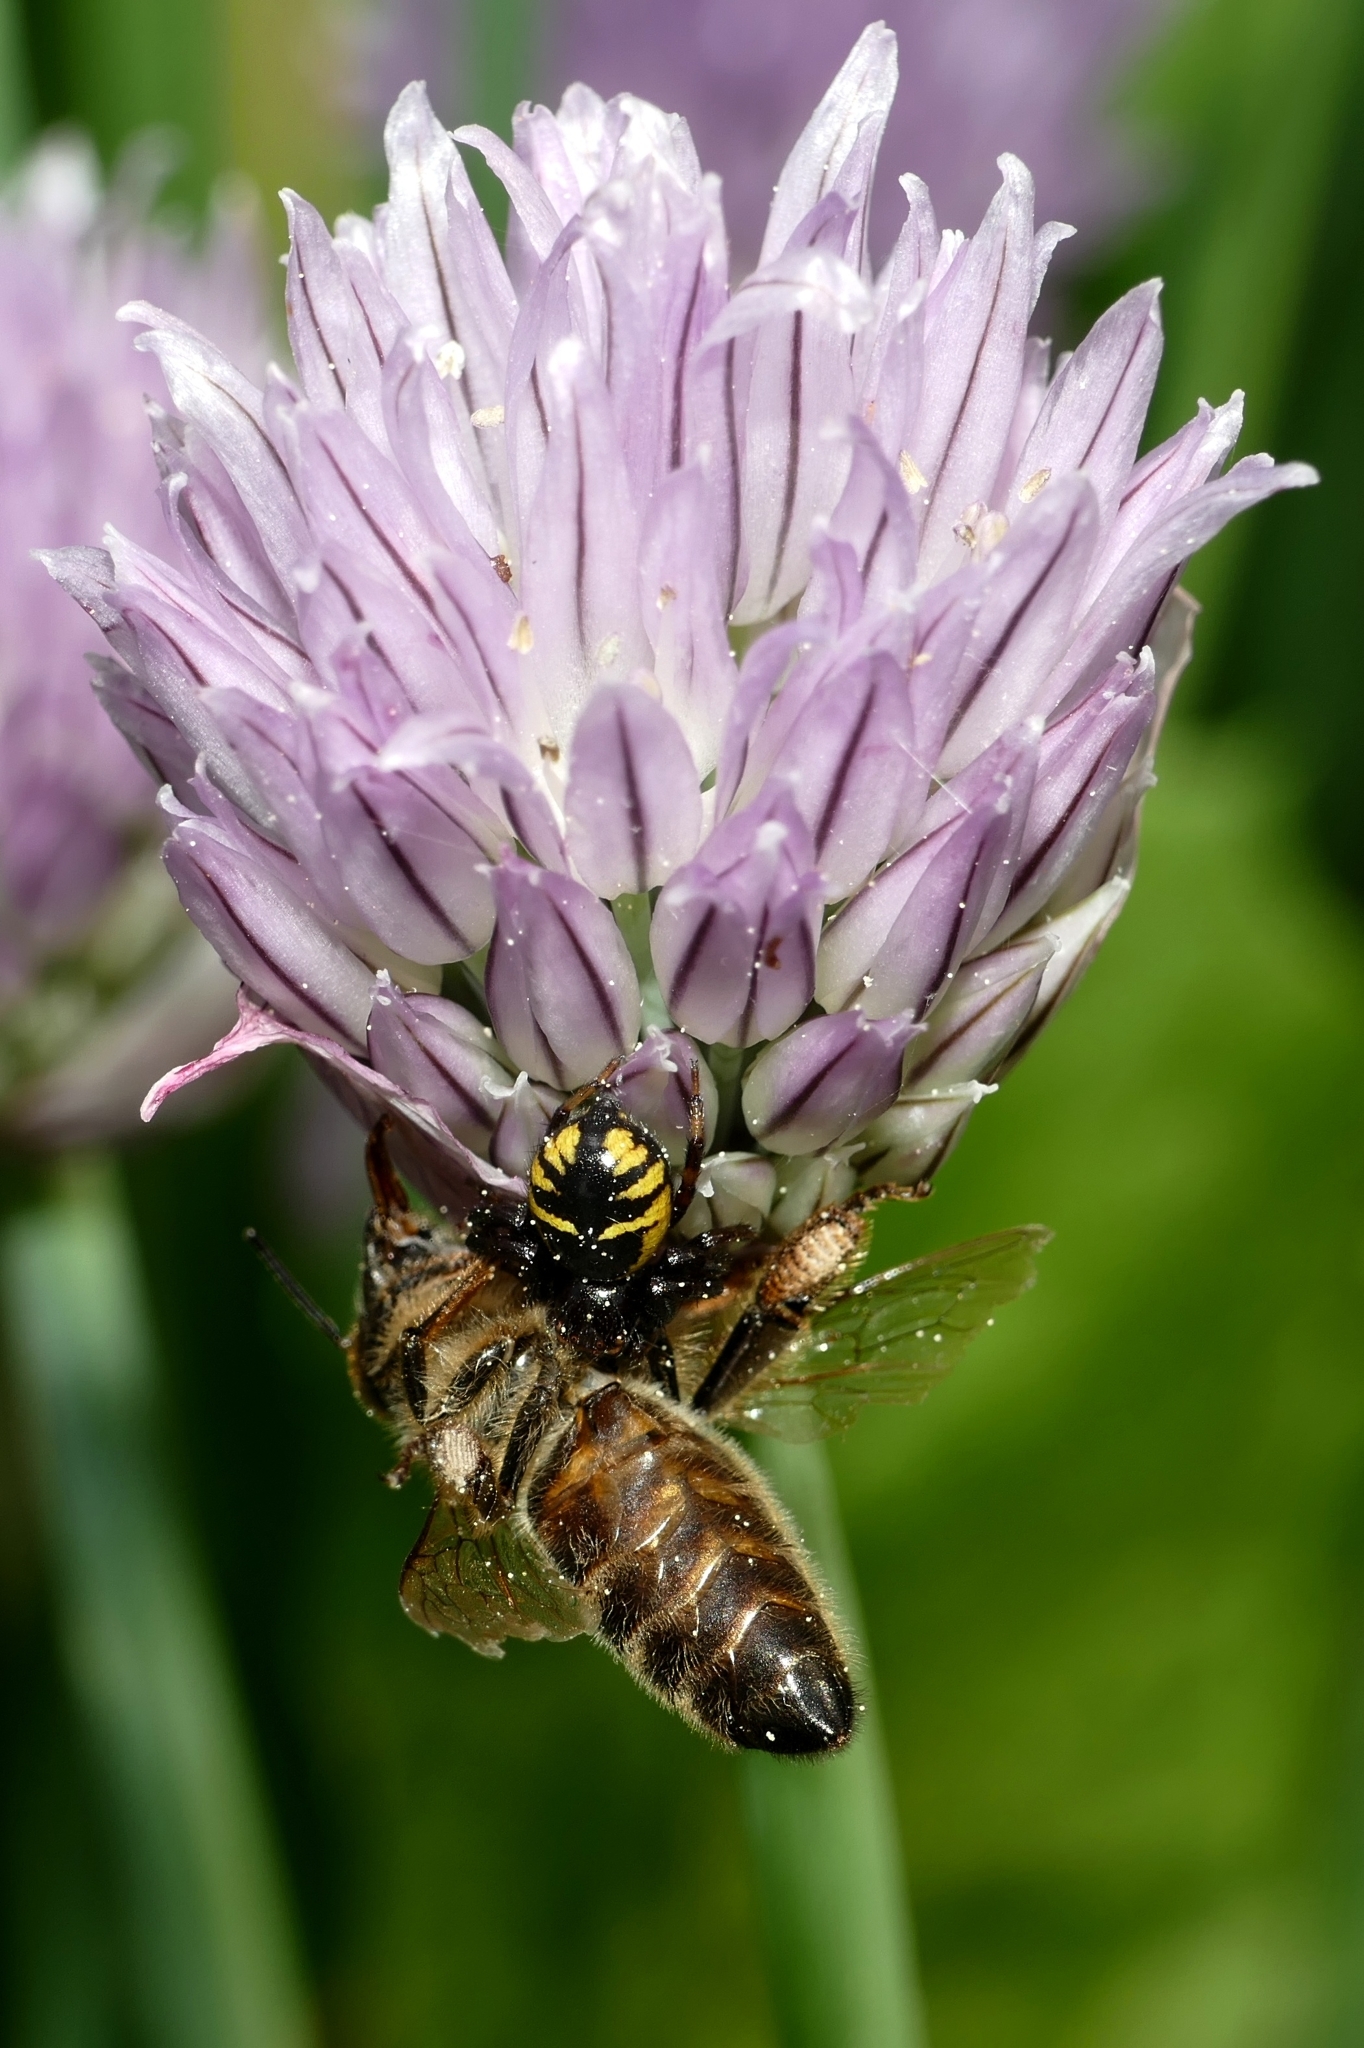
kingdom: Animalia
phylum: Arthropoda
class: Arachnida
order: Araneae
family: Thomisidae
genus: Synema
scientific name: Synema globosum
